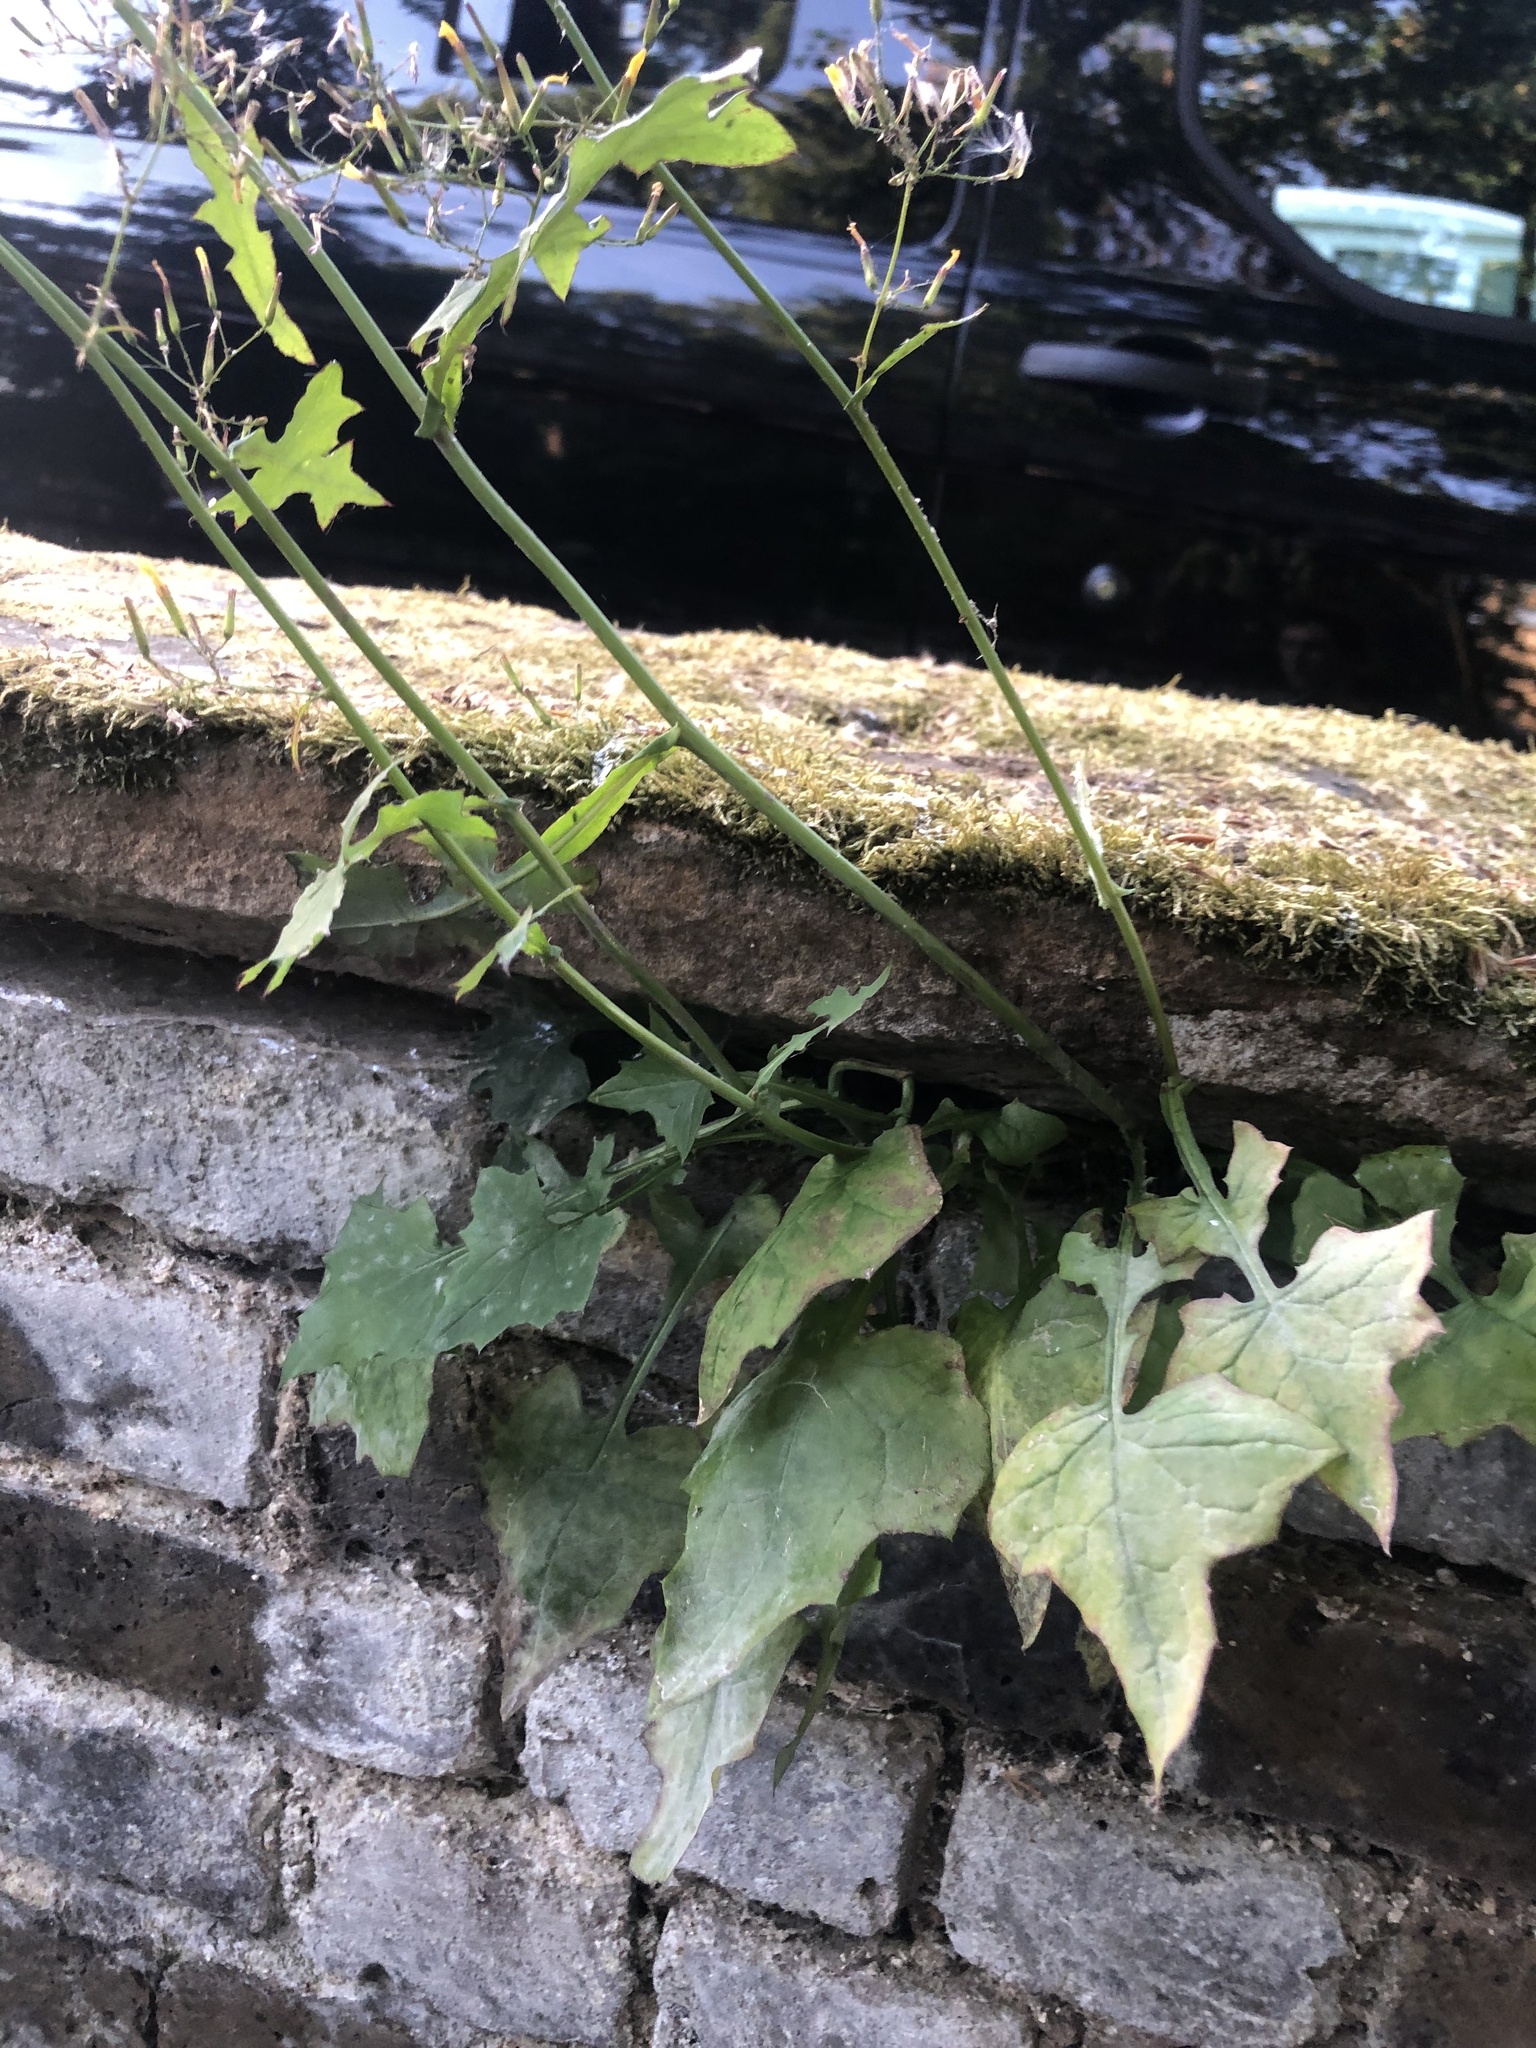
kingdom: Plantae
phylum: Tracheophyta
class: Magnoliopsida
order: Asterales
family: Asteraceae
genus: Mycelis
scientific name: Mycelis muralis
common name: Wall lettuce
